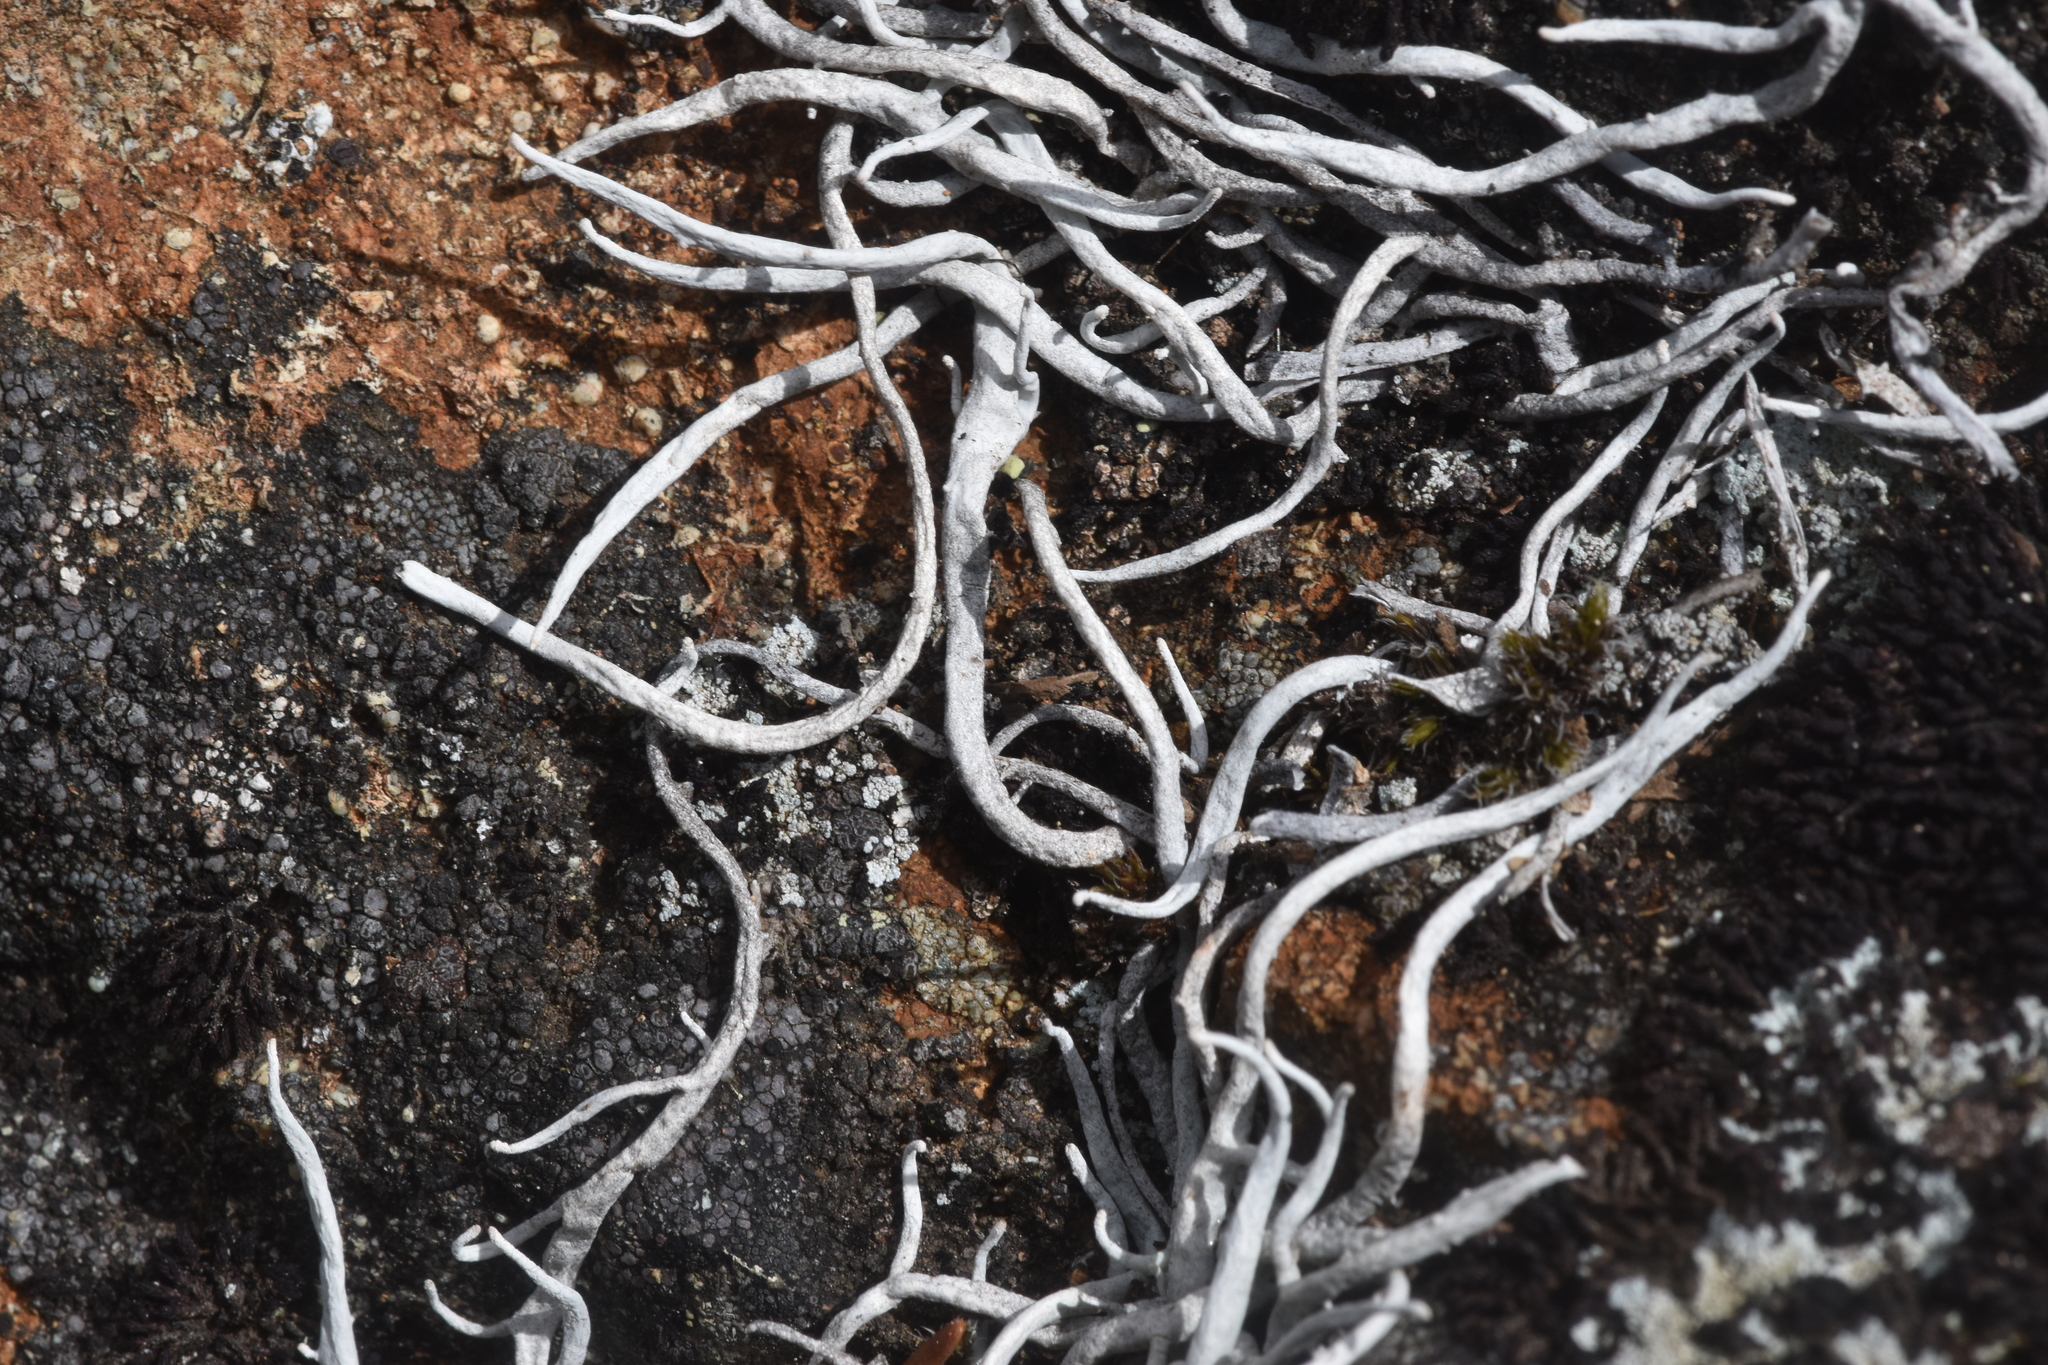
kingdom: Fungi
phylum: Ascomycota
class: Lecanoromycetes
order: Pertusariales
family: Icmadophilaceae
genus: Thamnolia
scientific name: Thamnolia vermicularis
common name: Whiteworm lichen
